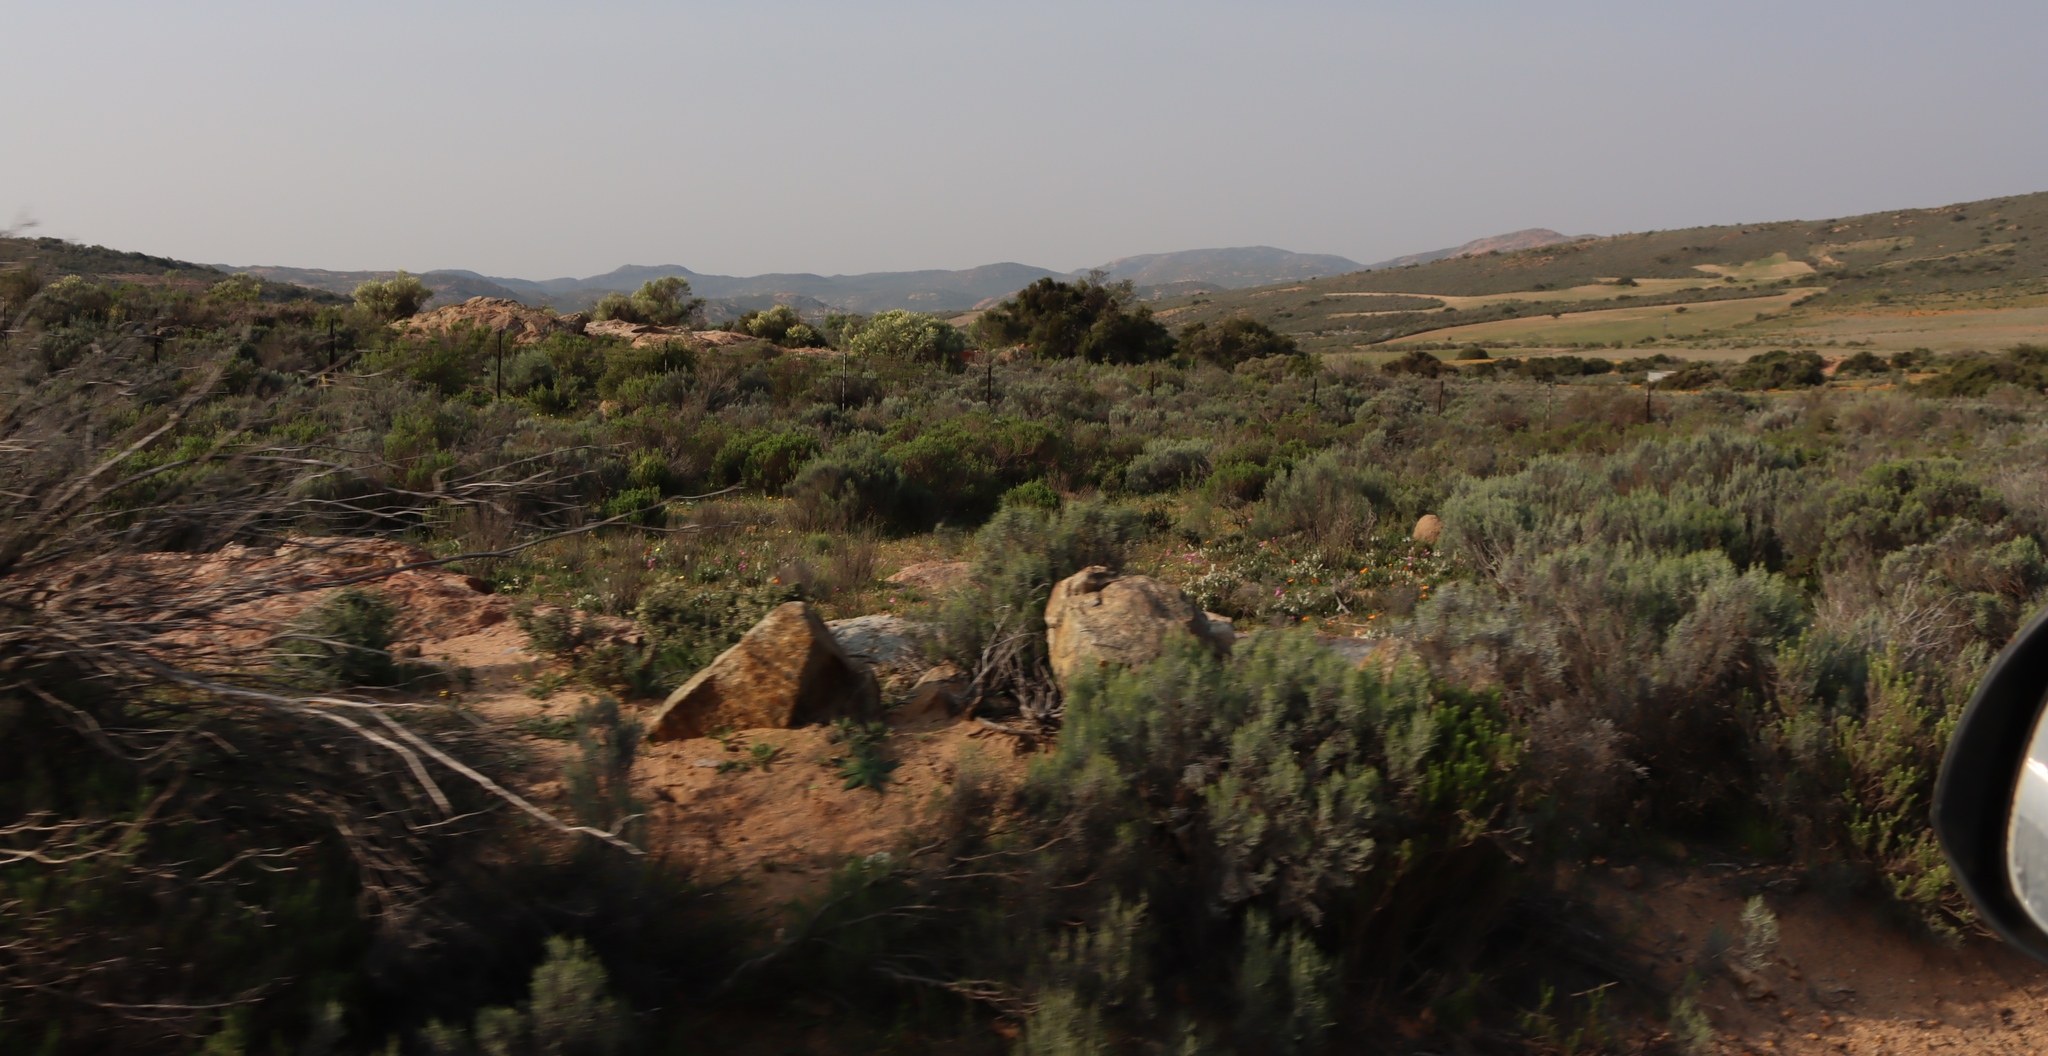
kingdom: Plantae
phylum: Tracheophyta
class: Magnoliopsida
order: Asterales
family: Asteraceae
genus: Dicerothamnus
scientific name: Dicerothamnus rhinocerotis
